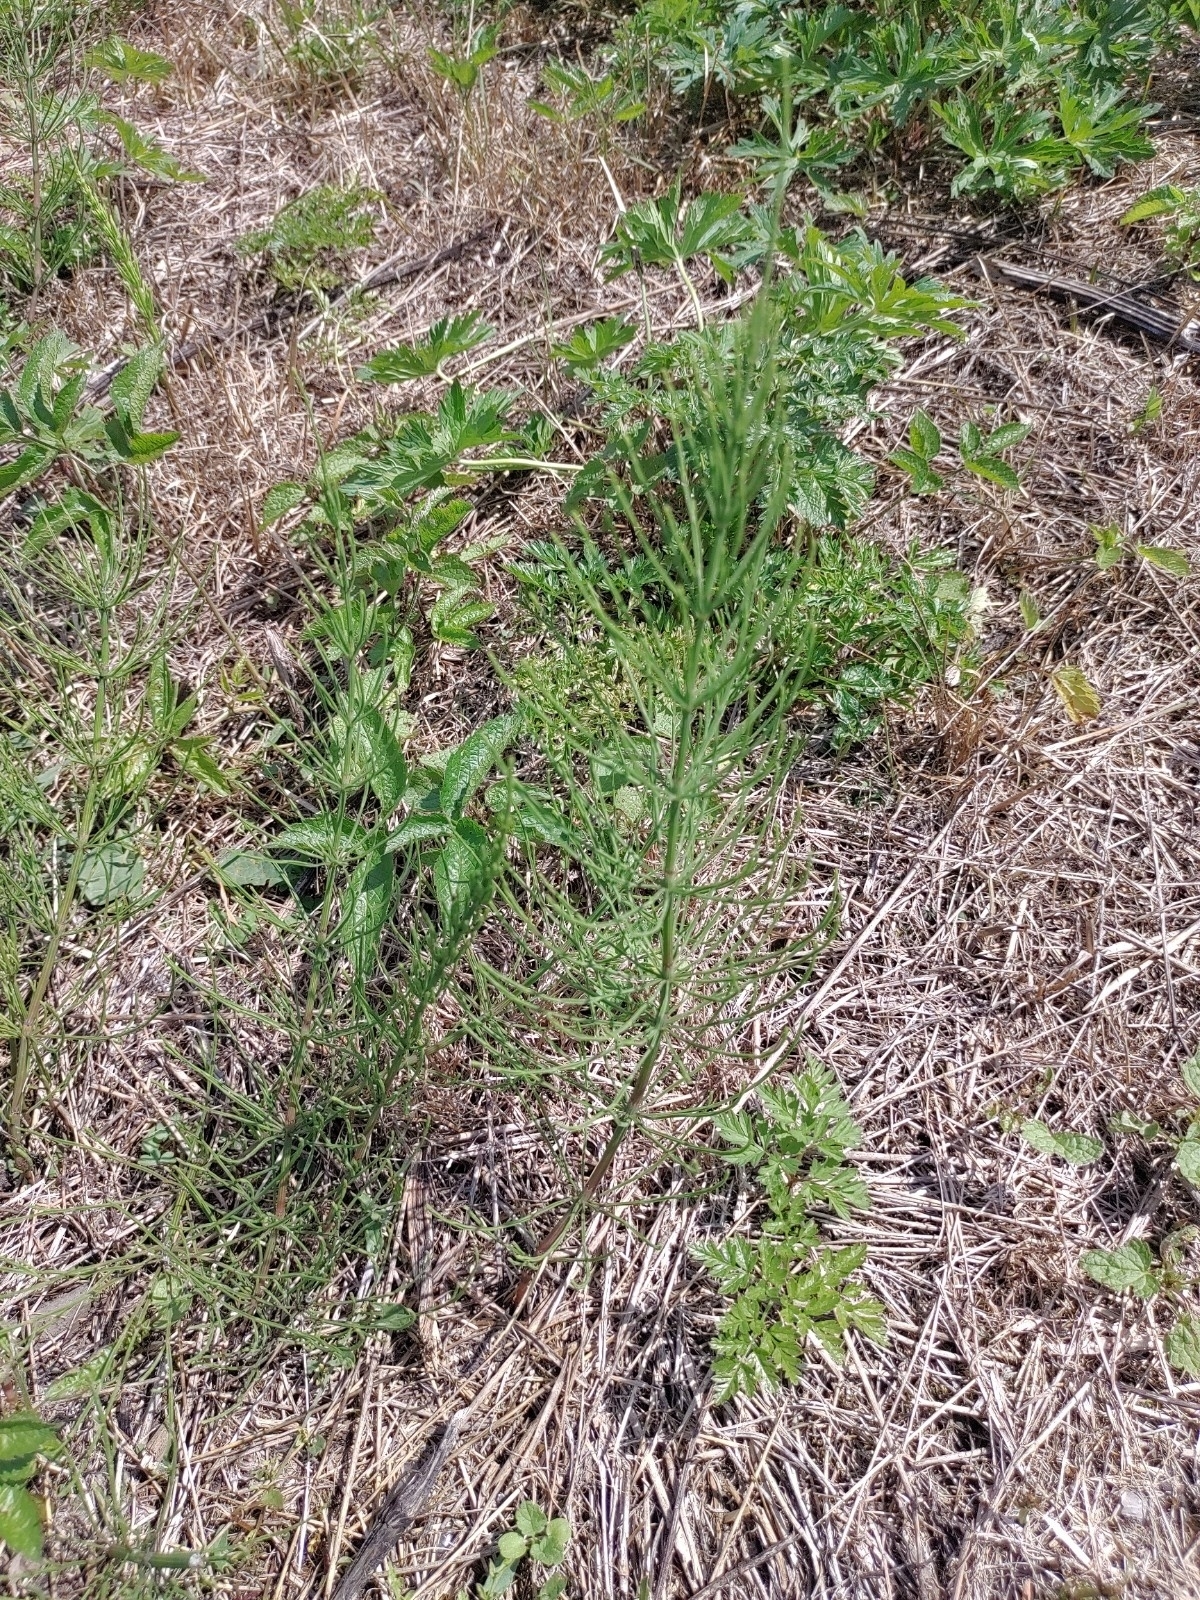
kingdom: Plantae
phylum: Tracheophyta
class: Polypodiopsida
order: Equisetales
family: Equisetaceae
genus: Equisetum
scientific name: Equisetum arvense
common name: Field horsetail
